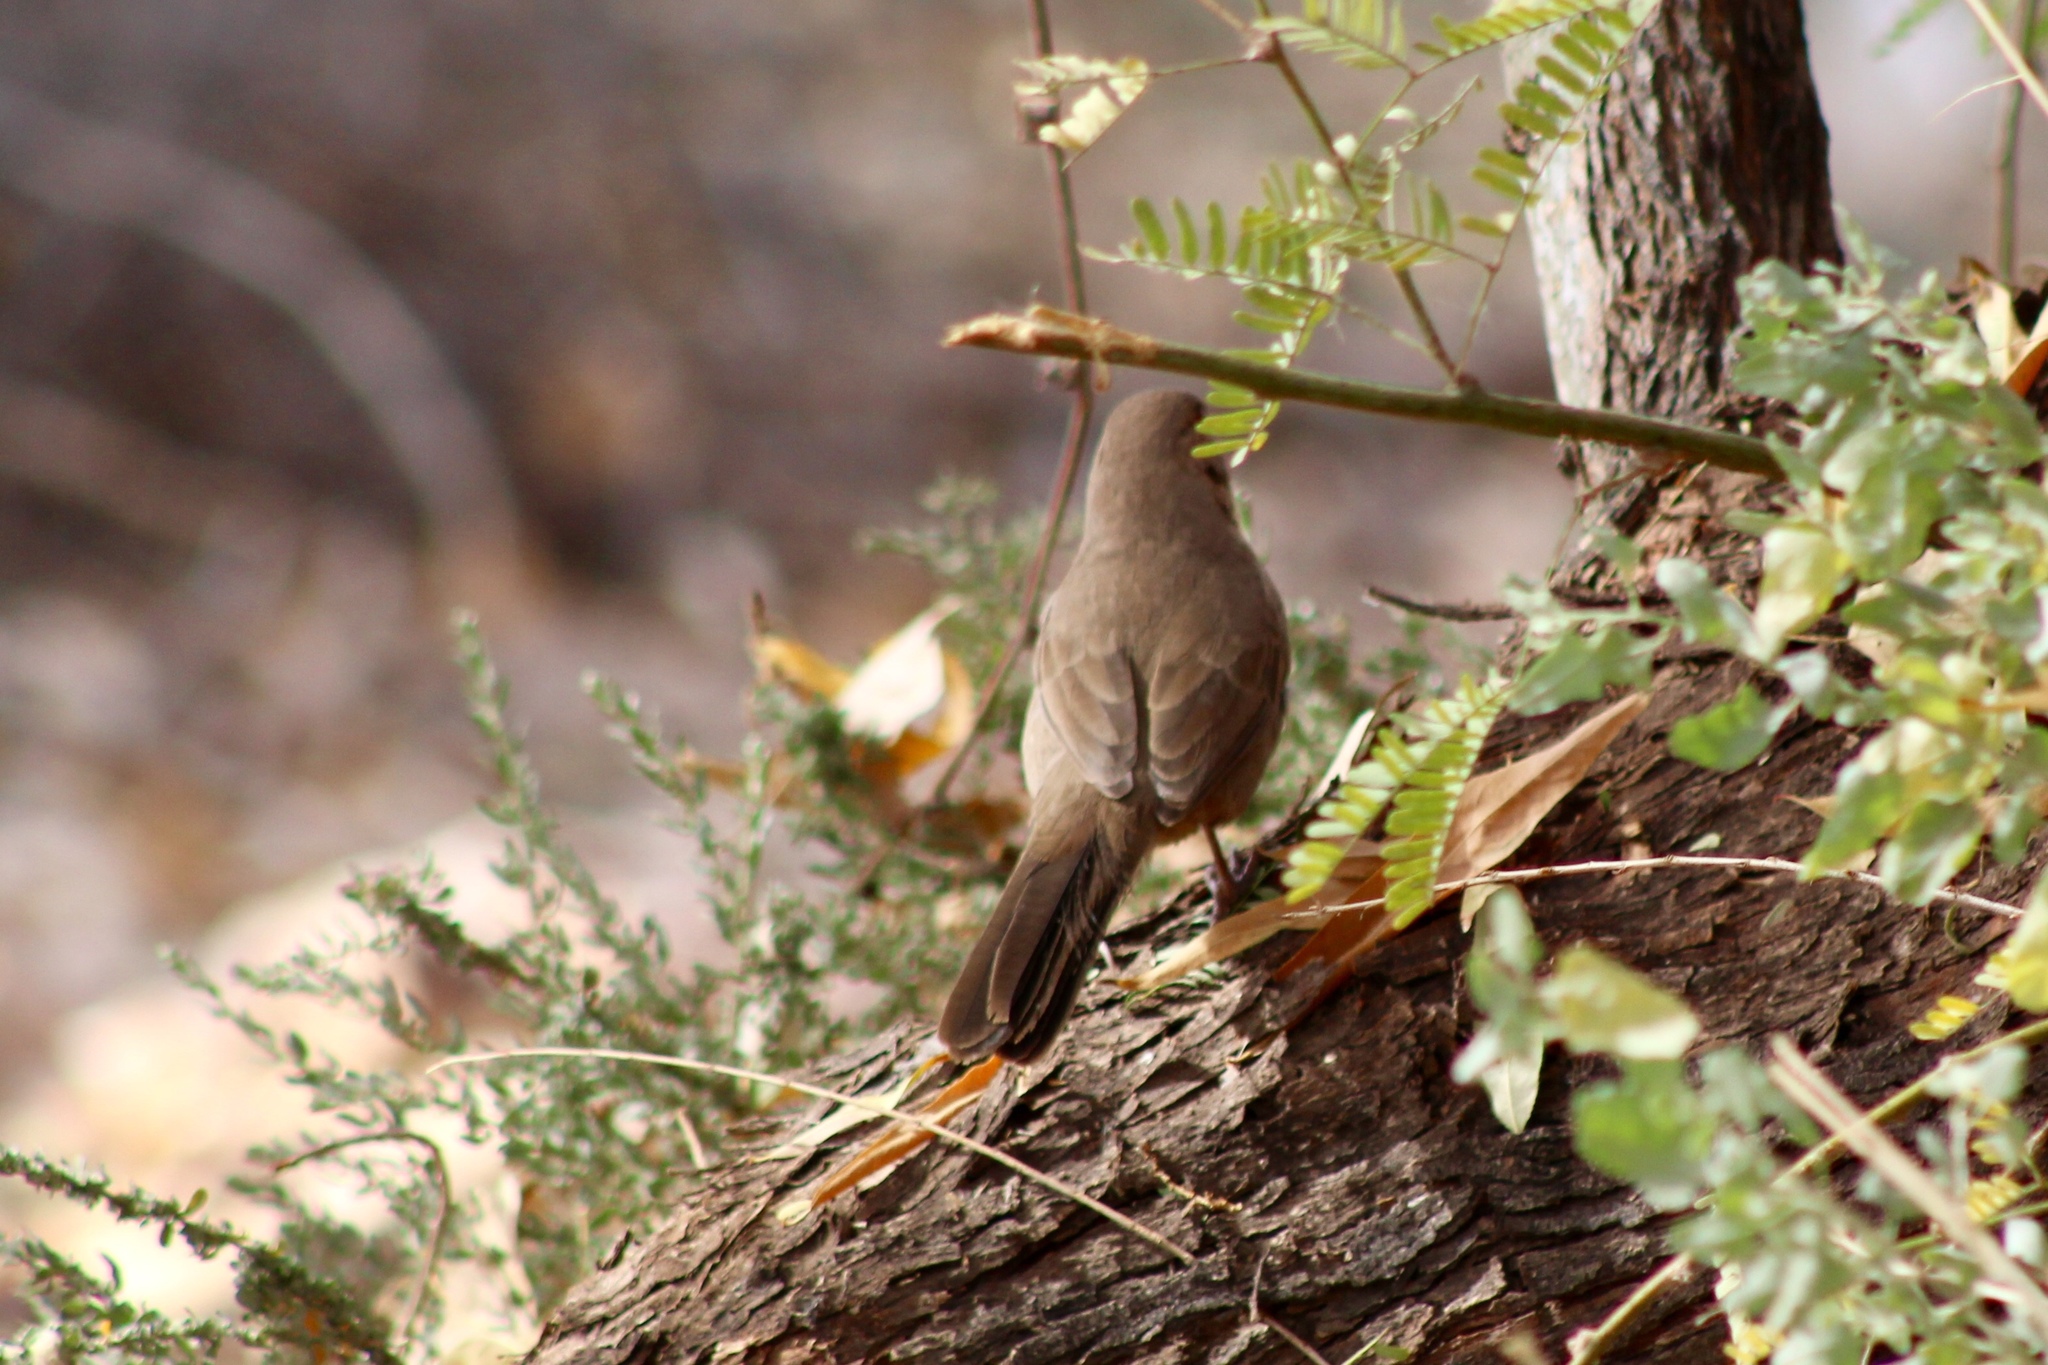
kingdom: Animalia
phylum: Chordata
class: Aves
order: Passeriformes
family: Passerellidae
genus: Melozone
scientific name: Melozone aberti
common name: Abert's towhee
